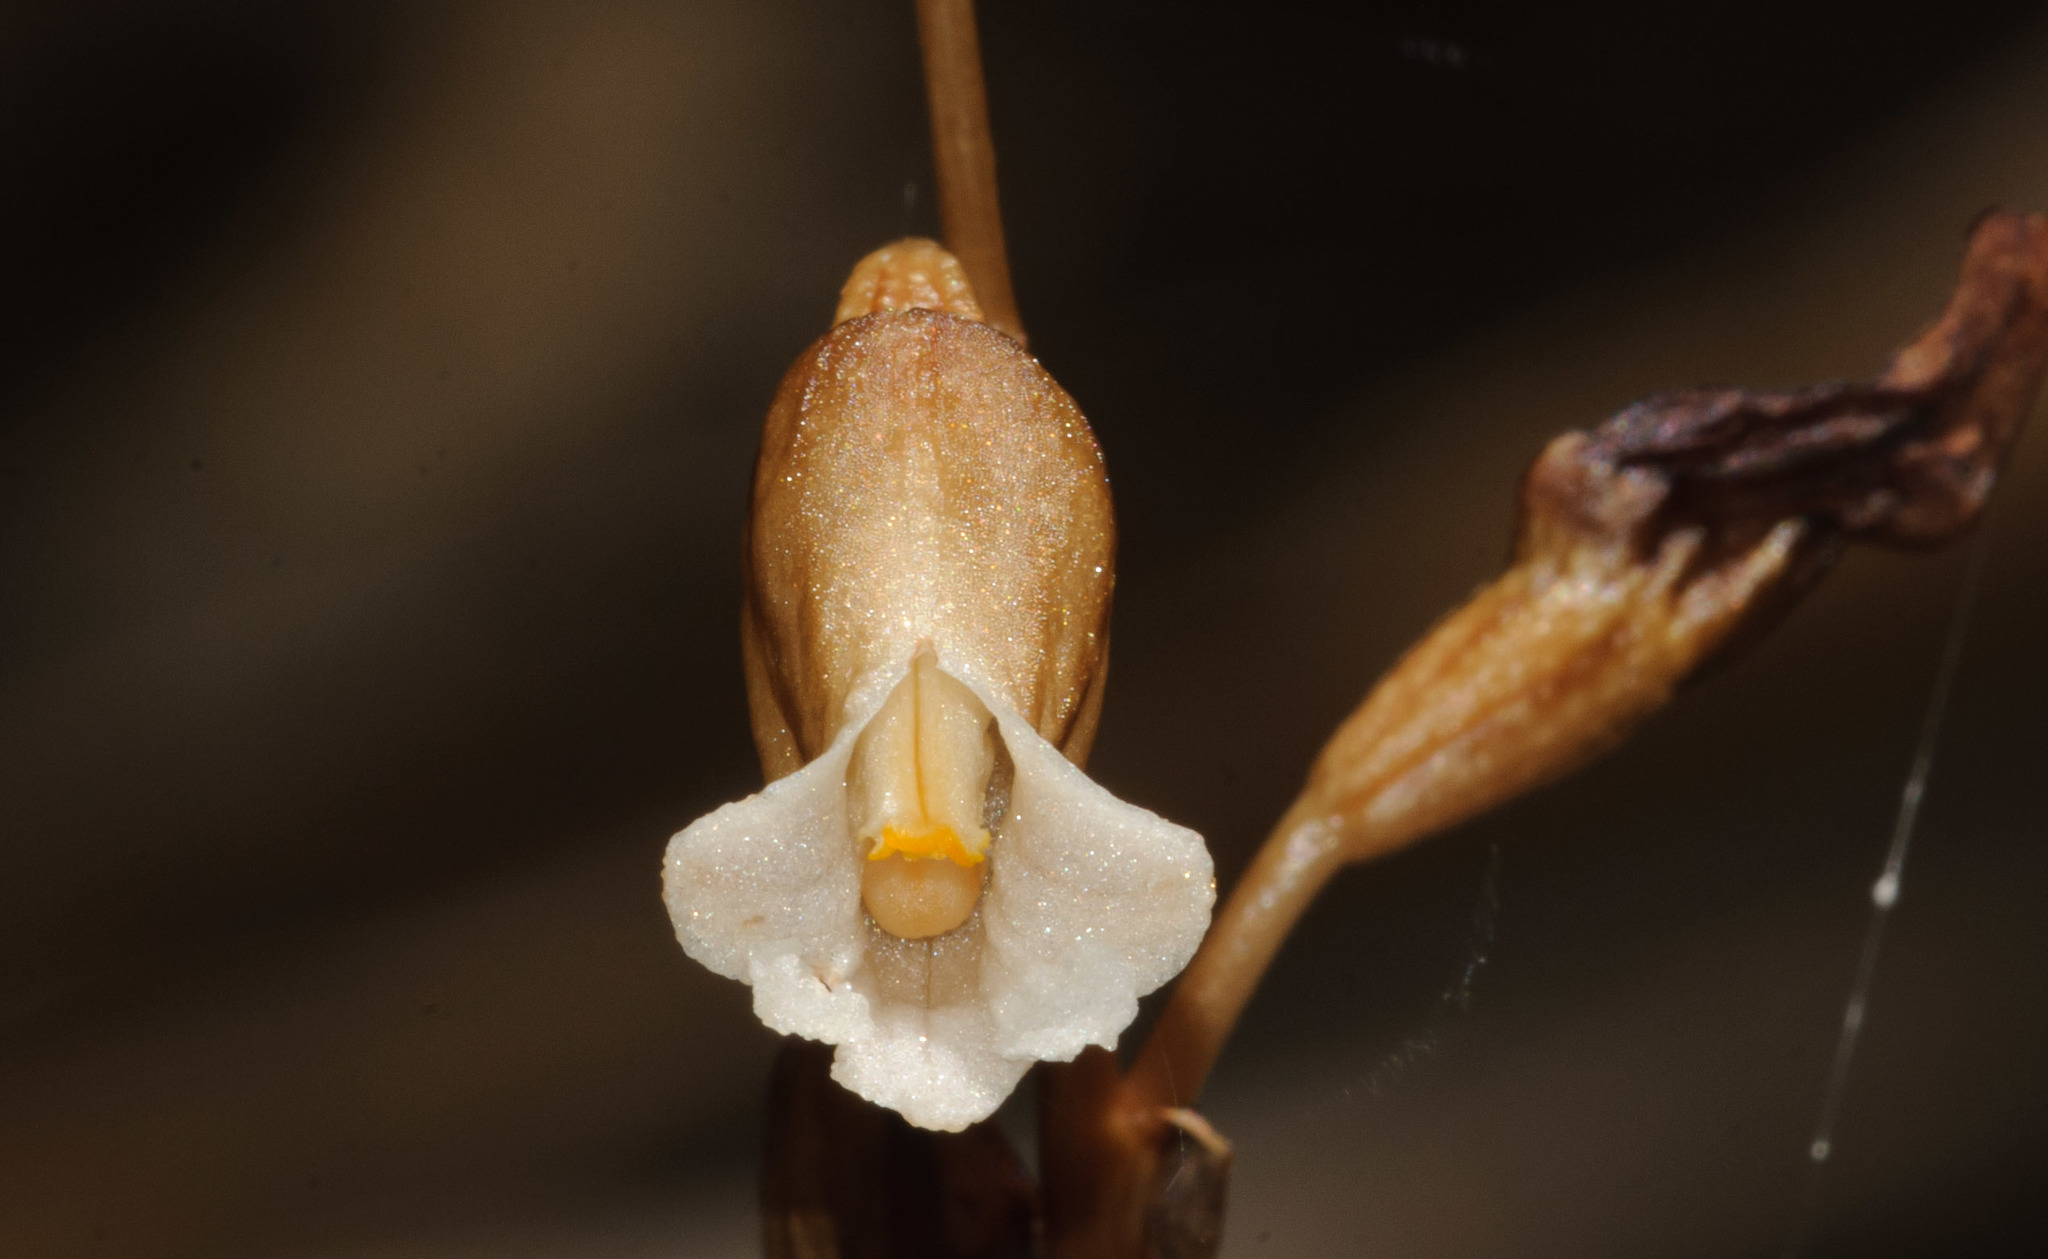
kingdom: Plantae
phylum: Tracheophyta
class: Liliopsida
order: Asparagales
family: Orchidaceae
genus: Gastrodia
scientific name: Gastrodia sesamoides
